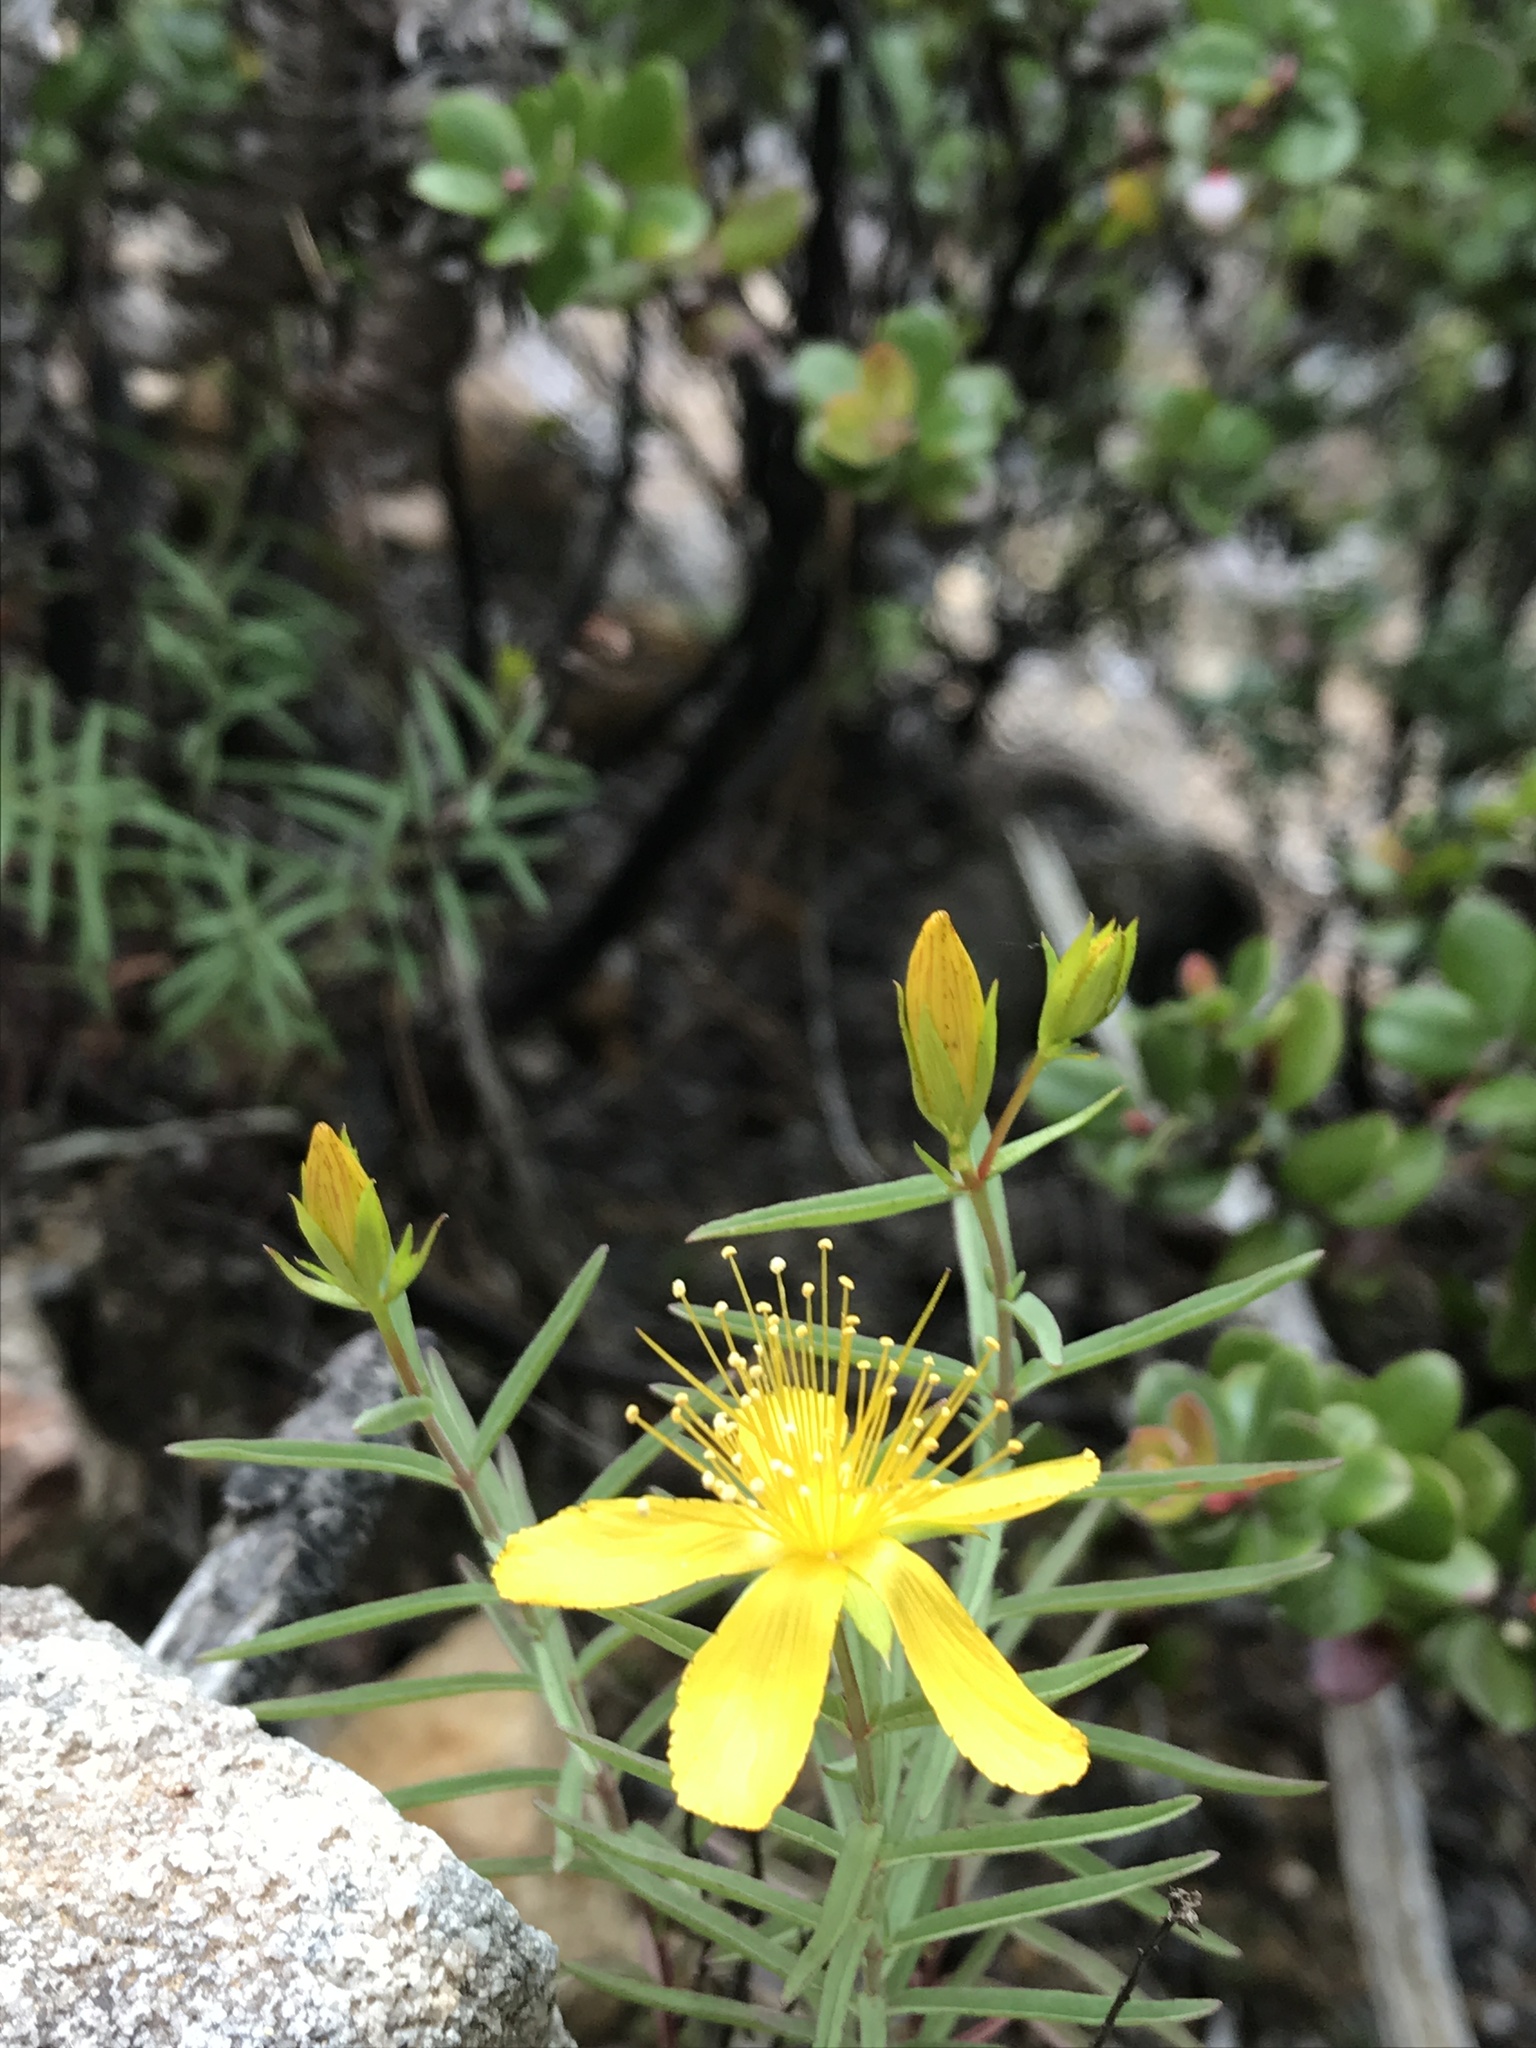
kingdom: Plantae
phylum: Tracheophyta
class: Magnoliopsida
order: Malpighiales
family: Hypericaceae
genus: Hypericum
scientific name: Hypericum concinnum
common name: Gold-wire
